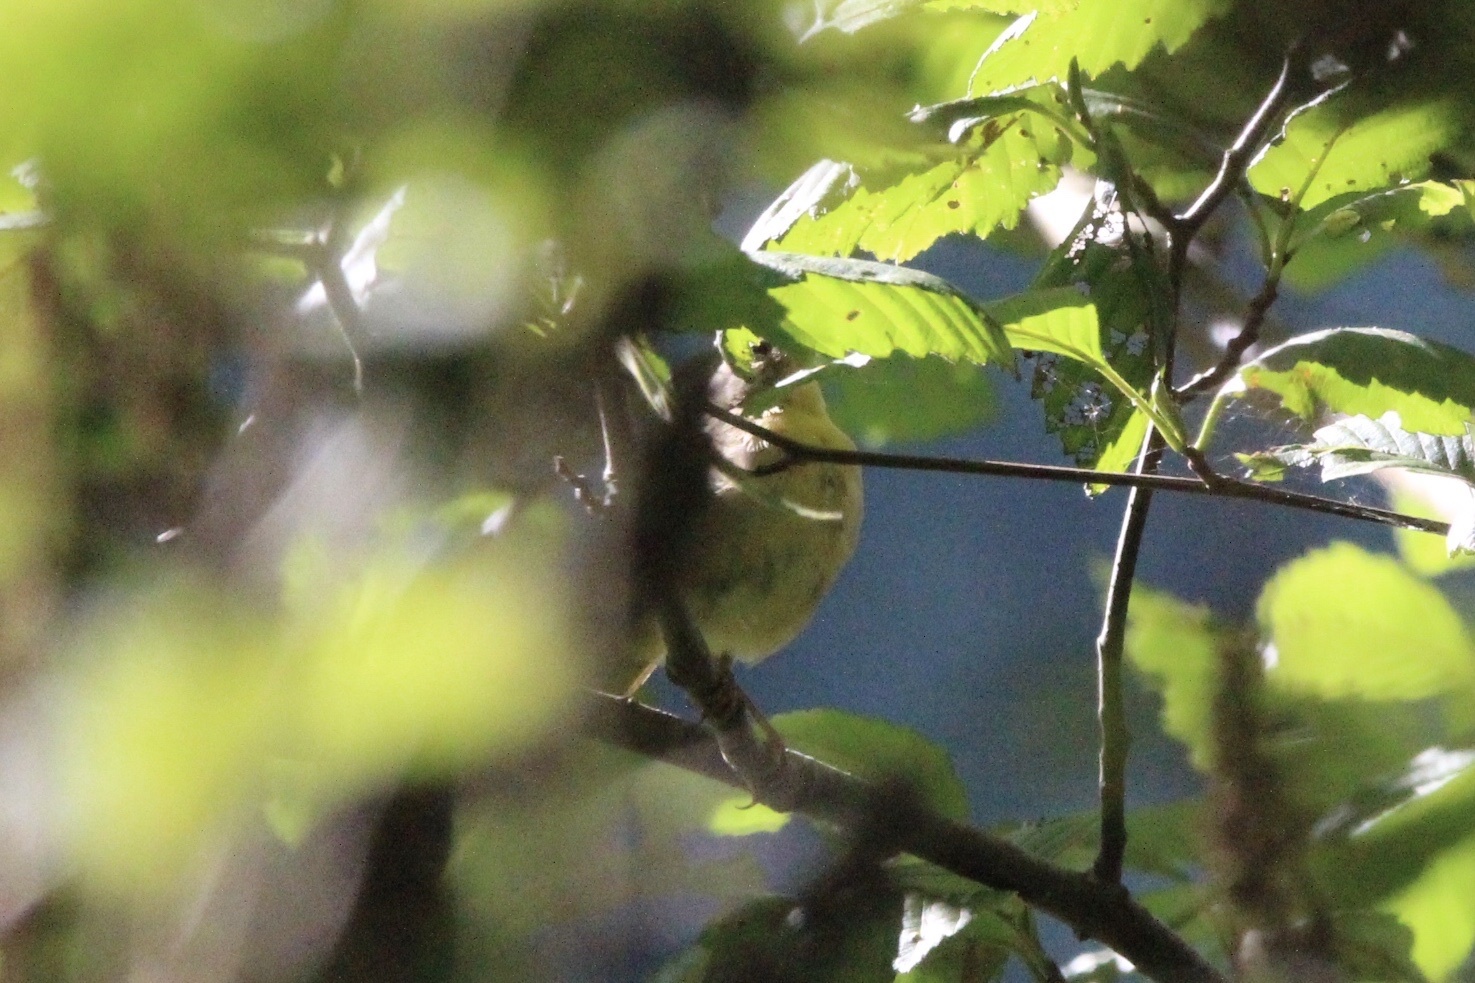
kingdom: Animalia
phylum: Chordata
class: Aves
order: Passeriformes
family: Parulidae
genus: Geothlypis
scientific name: Geothlypis trichas
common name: Common yellowthroat
